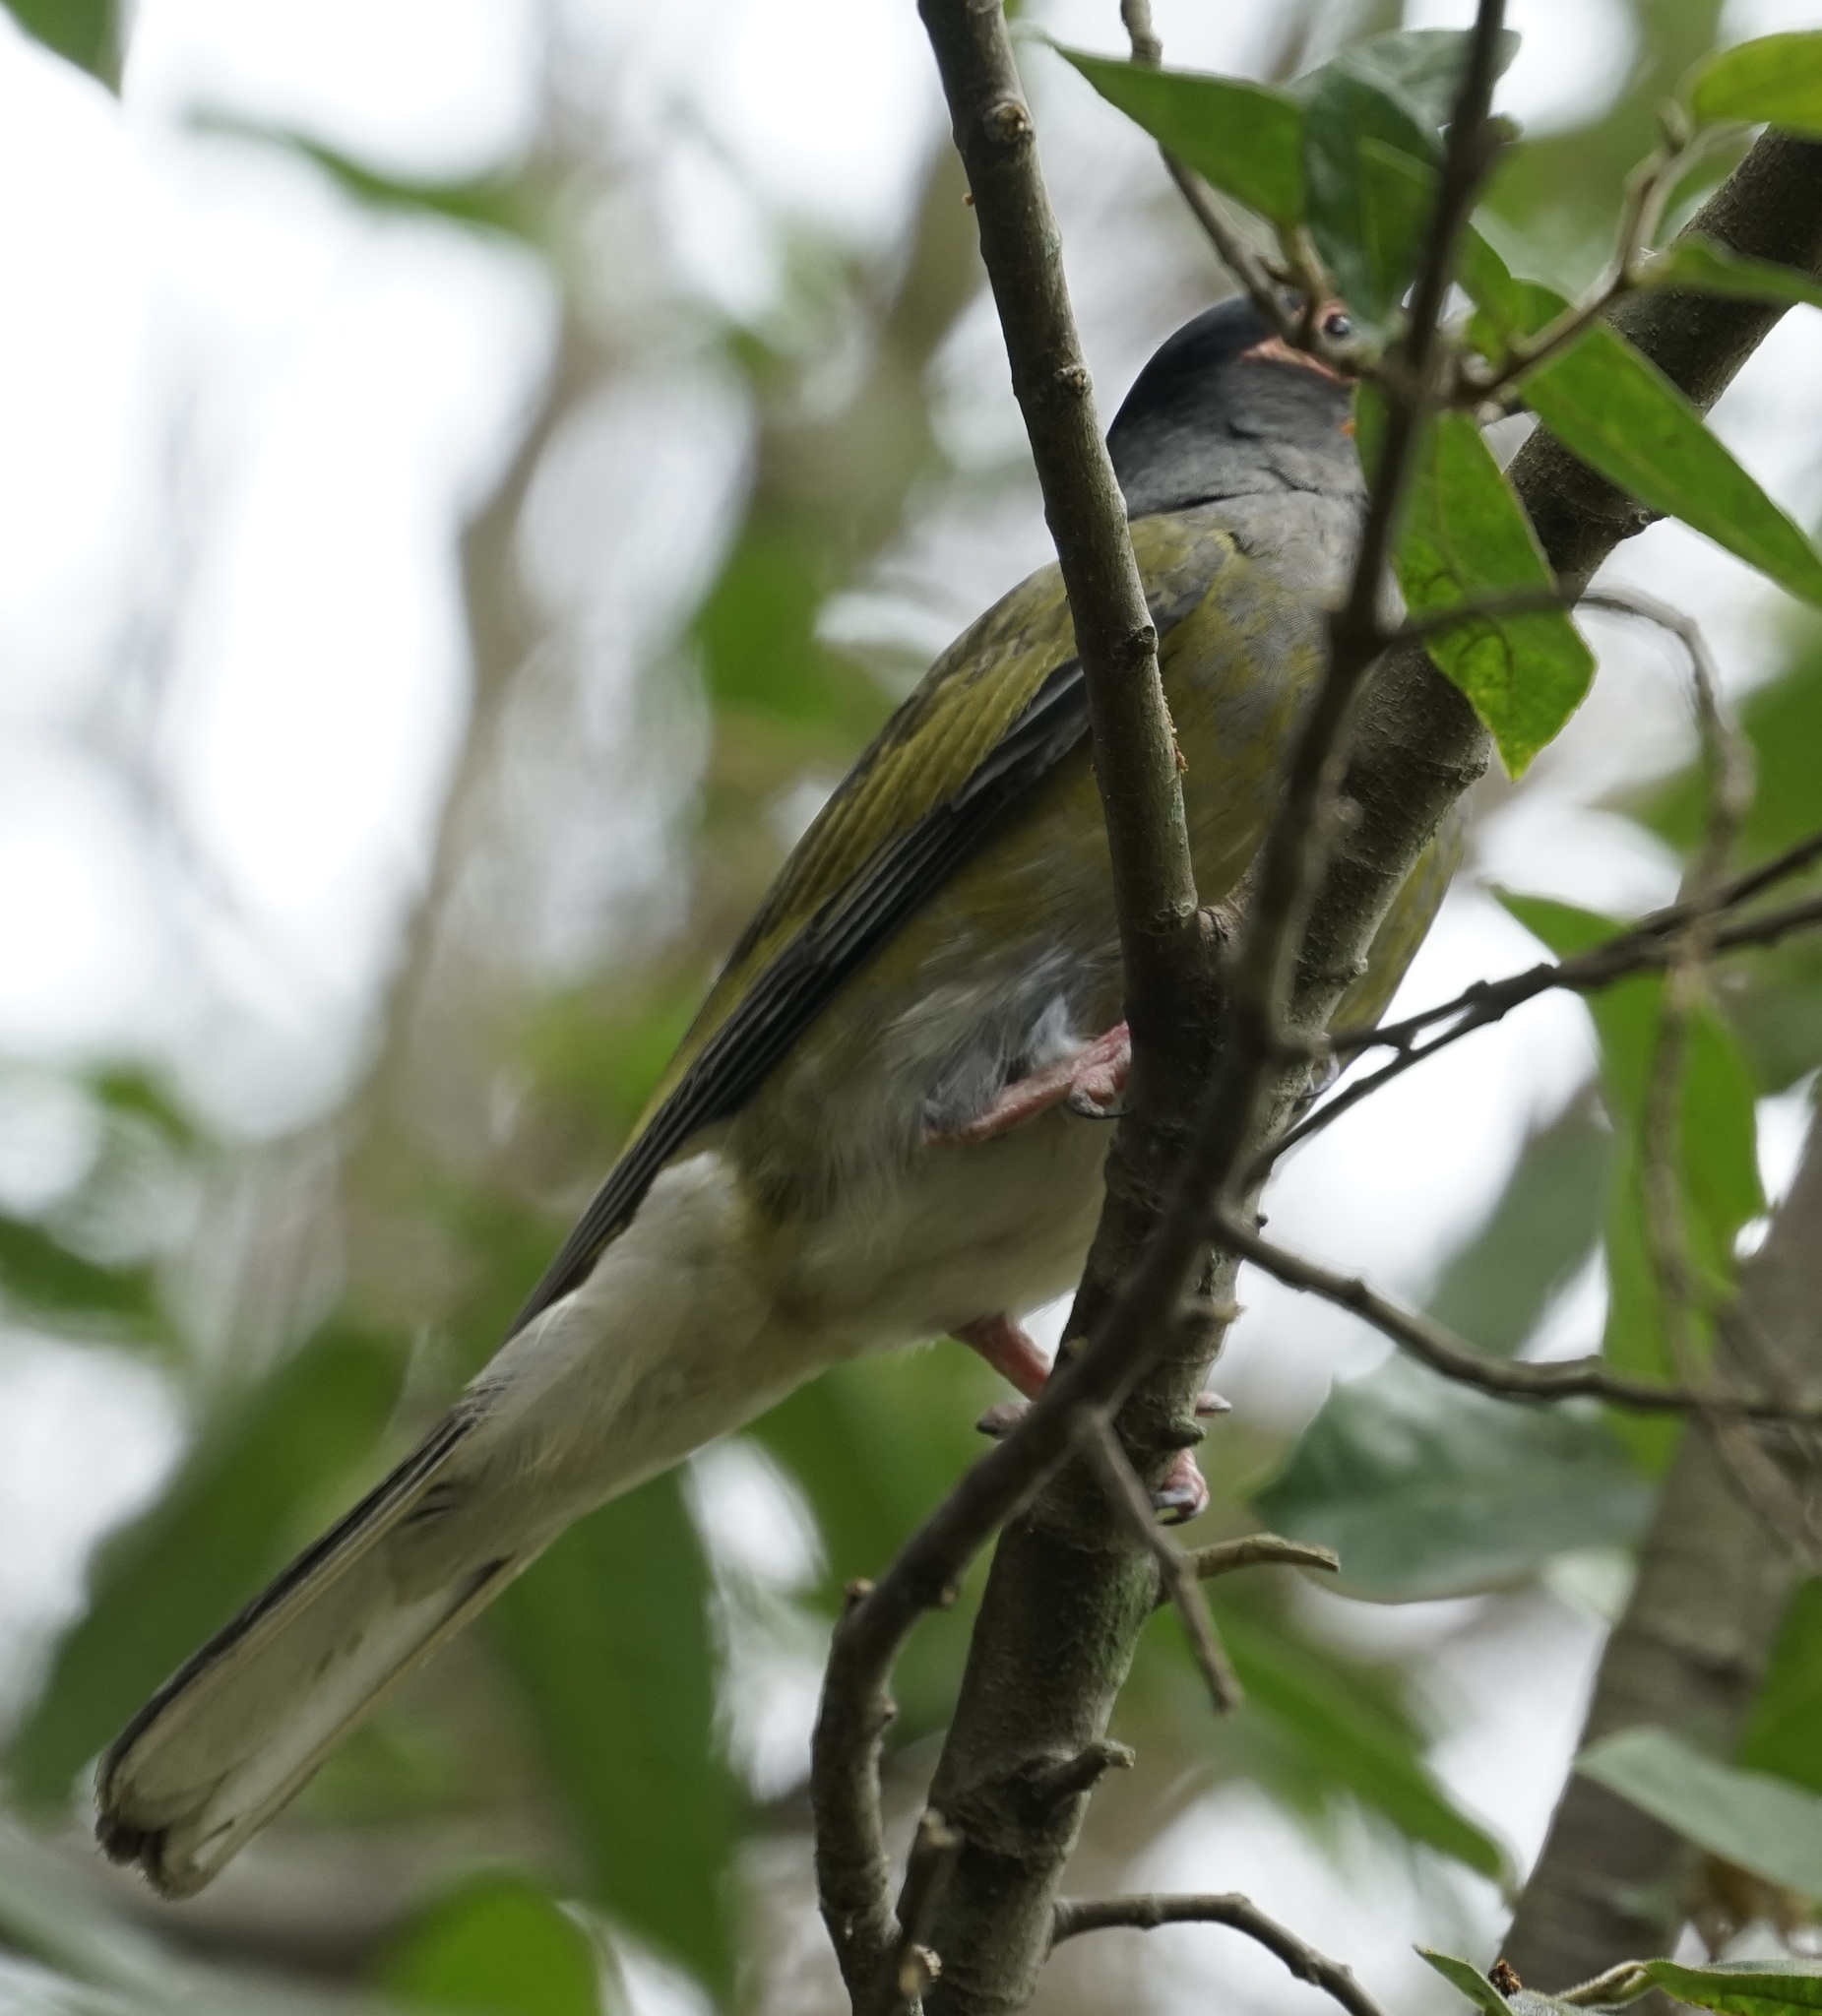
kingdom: Animalia
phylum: Chordata
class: Aves
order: Passeriformes
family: Oriolidae
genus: Sphecotheres
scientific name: Sphecotheres vieilloti
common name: Australasian figbird
